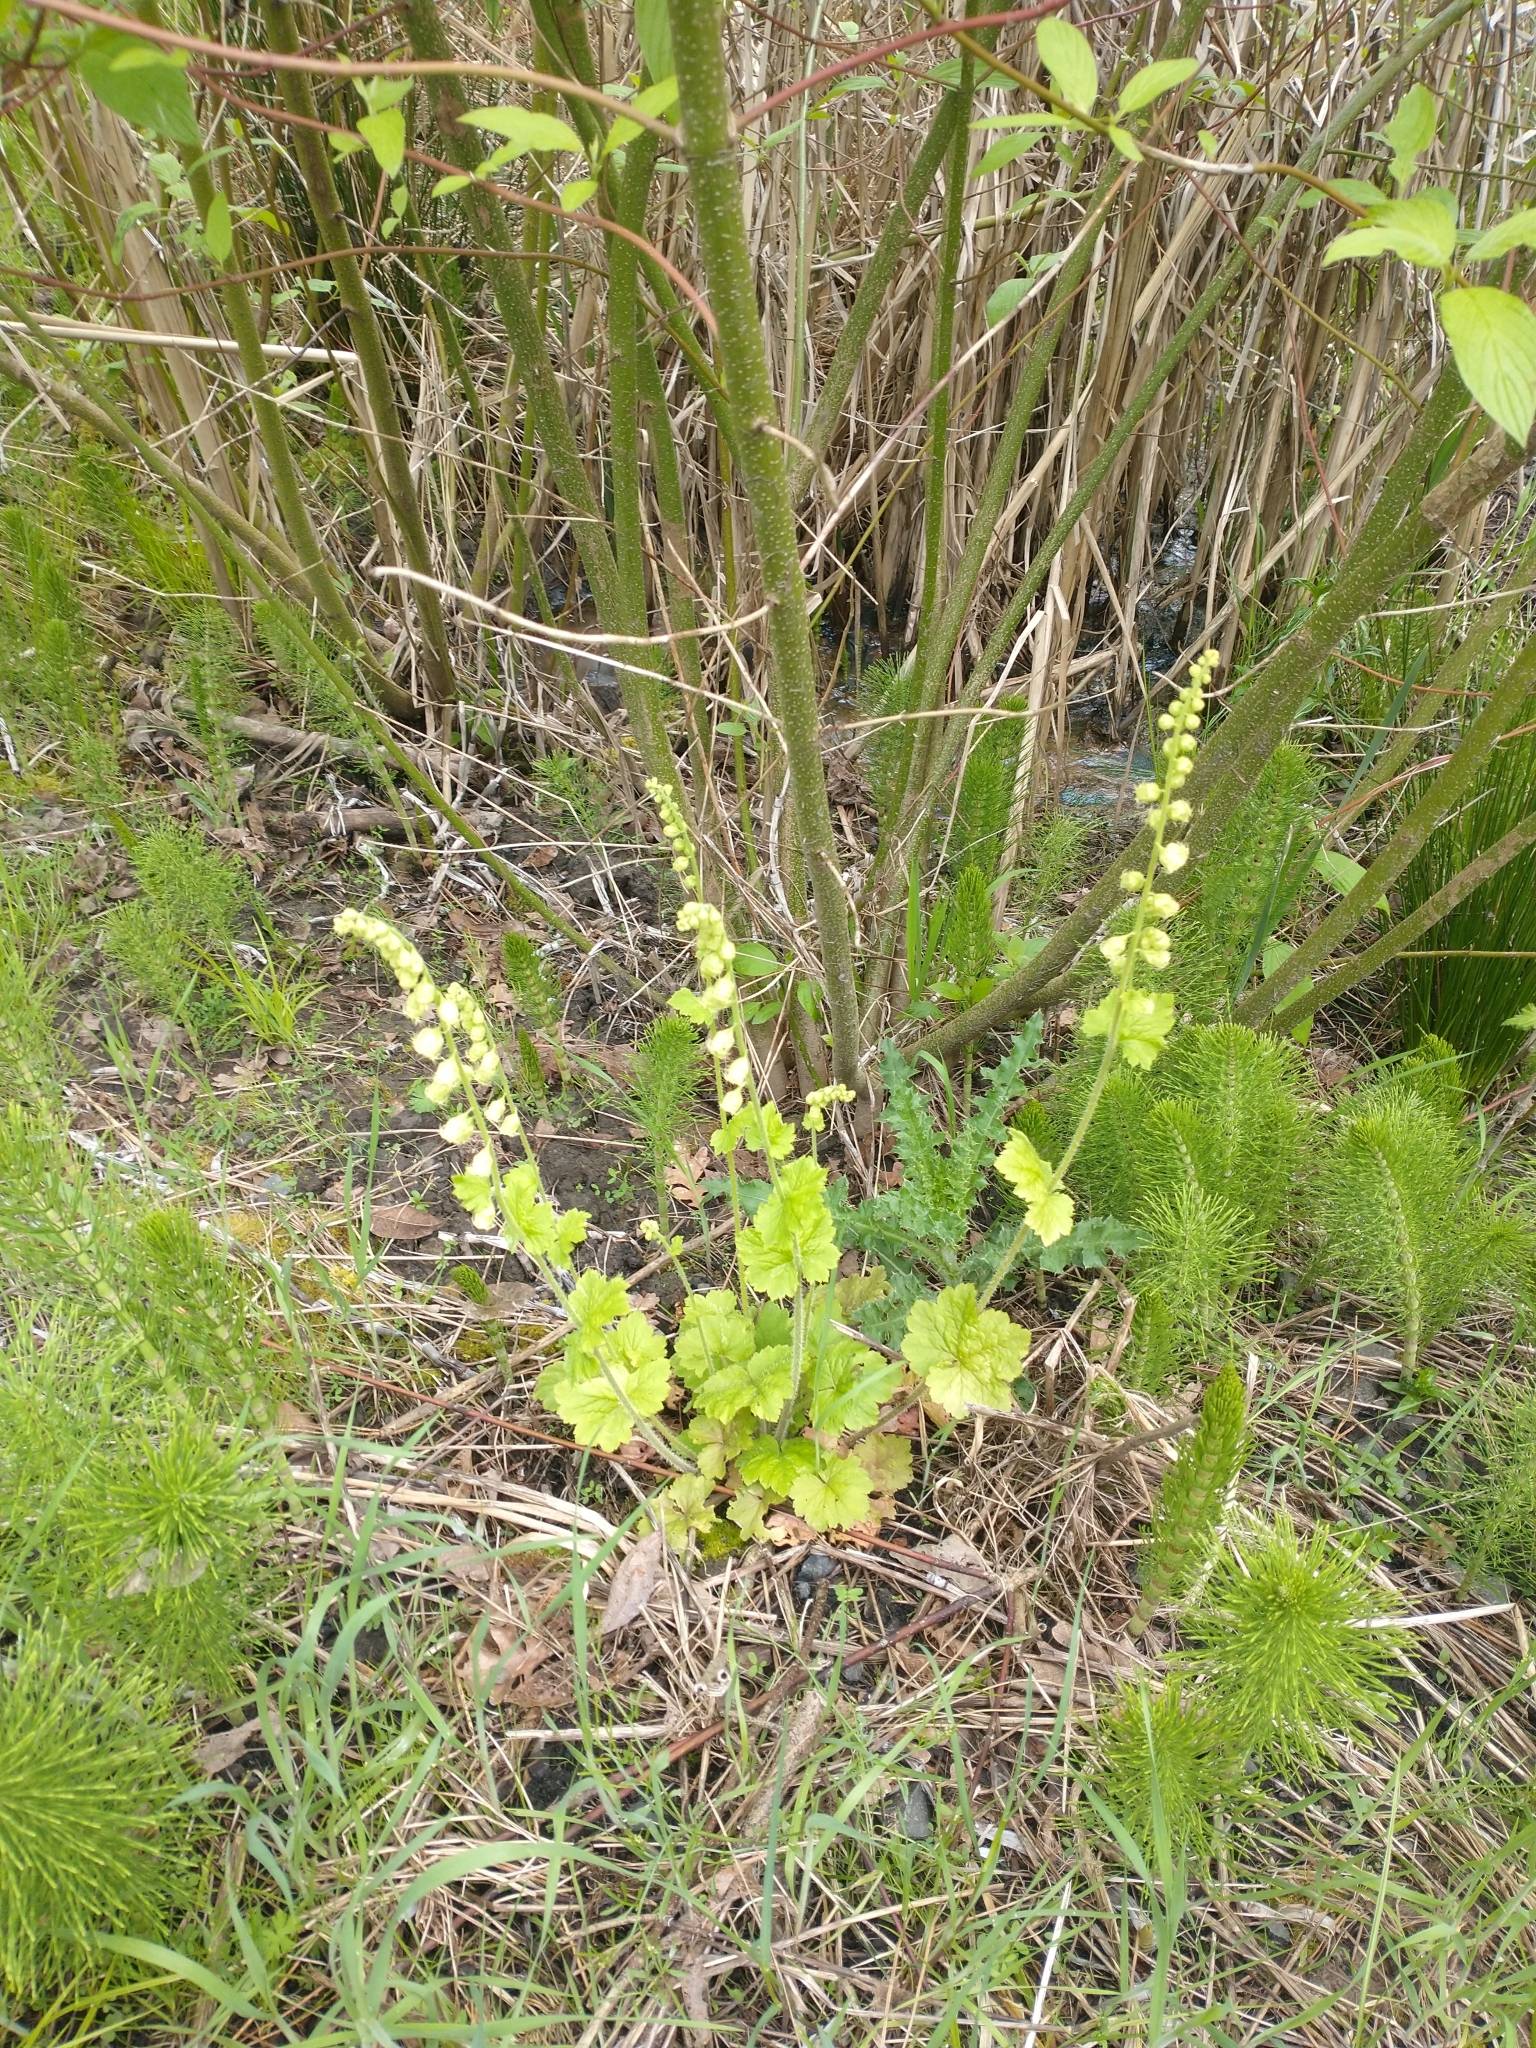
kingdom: Plantae
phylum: Tracheophyta
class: Magnoliopsida
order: Saxifragales
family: Saxifragaceae
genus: Tellima
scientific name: Tellima grandiflora
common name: Fringecups
